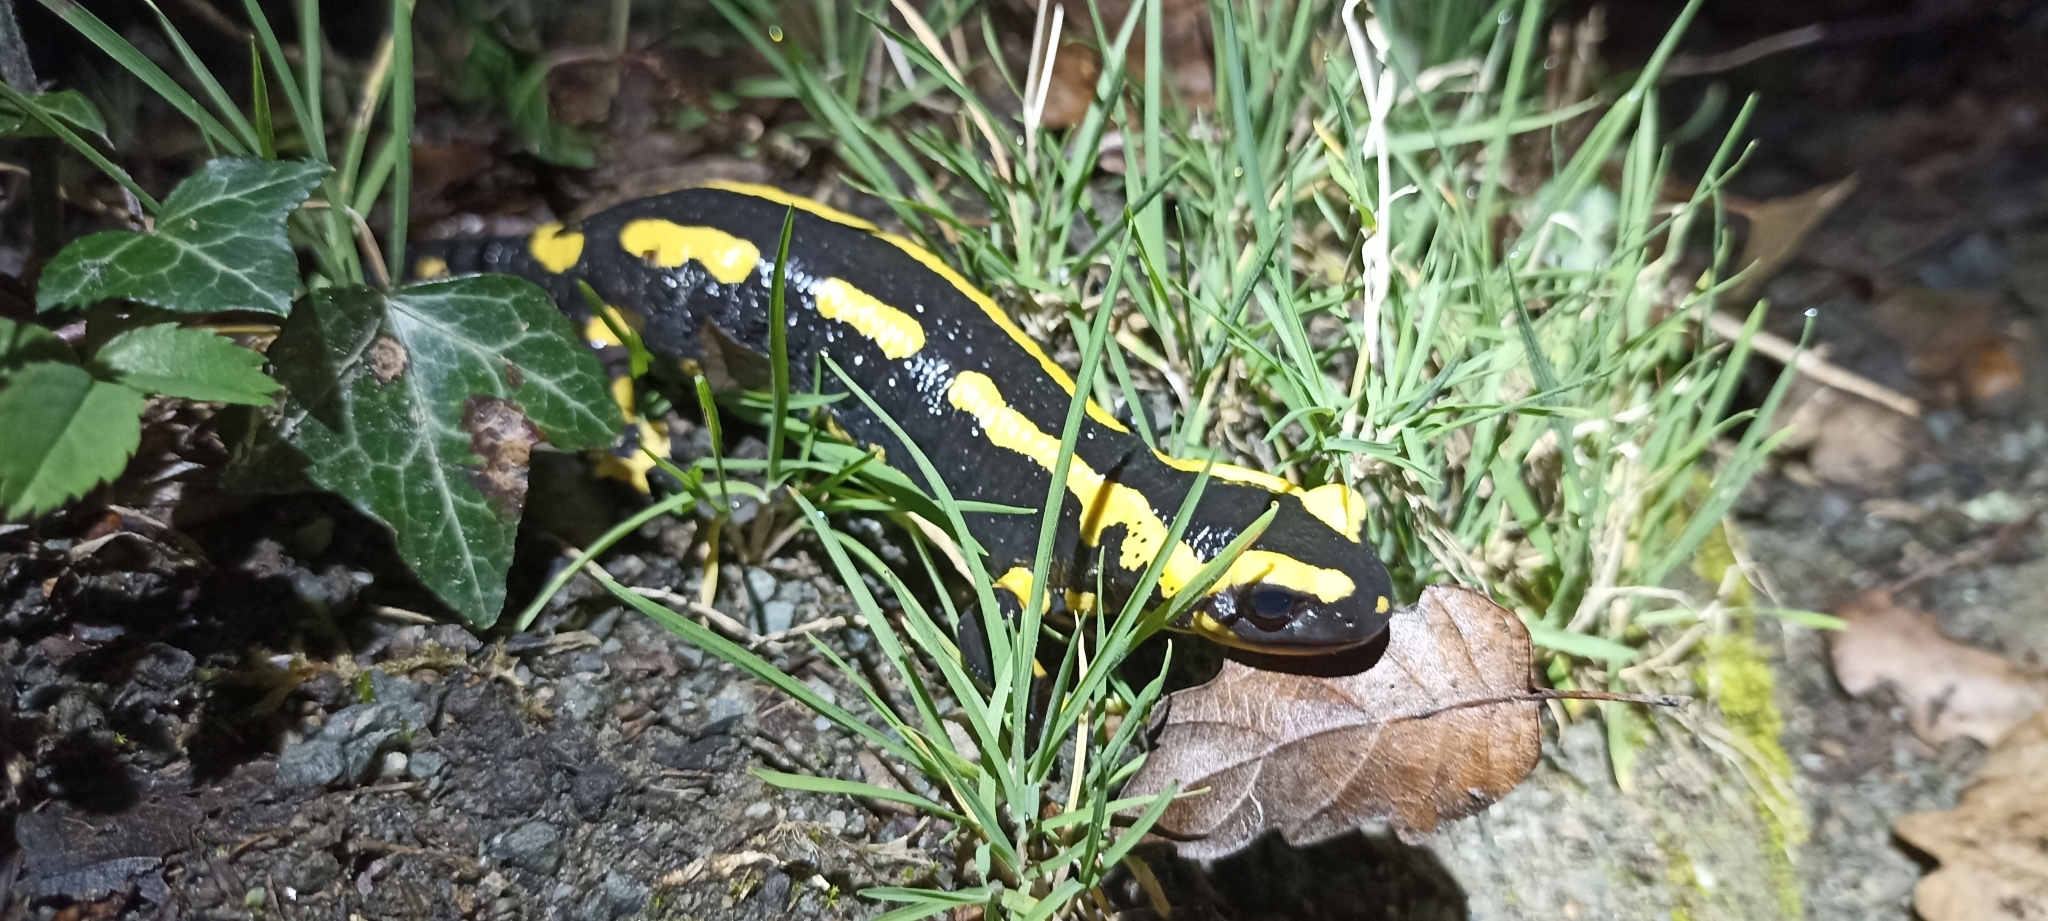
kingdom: Animalia
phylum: Chordata
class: Amphibia
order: Caudata
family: Salamandridae
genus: Salamandra
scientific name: Salamandra salamandra
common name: Fire salamander
